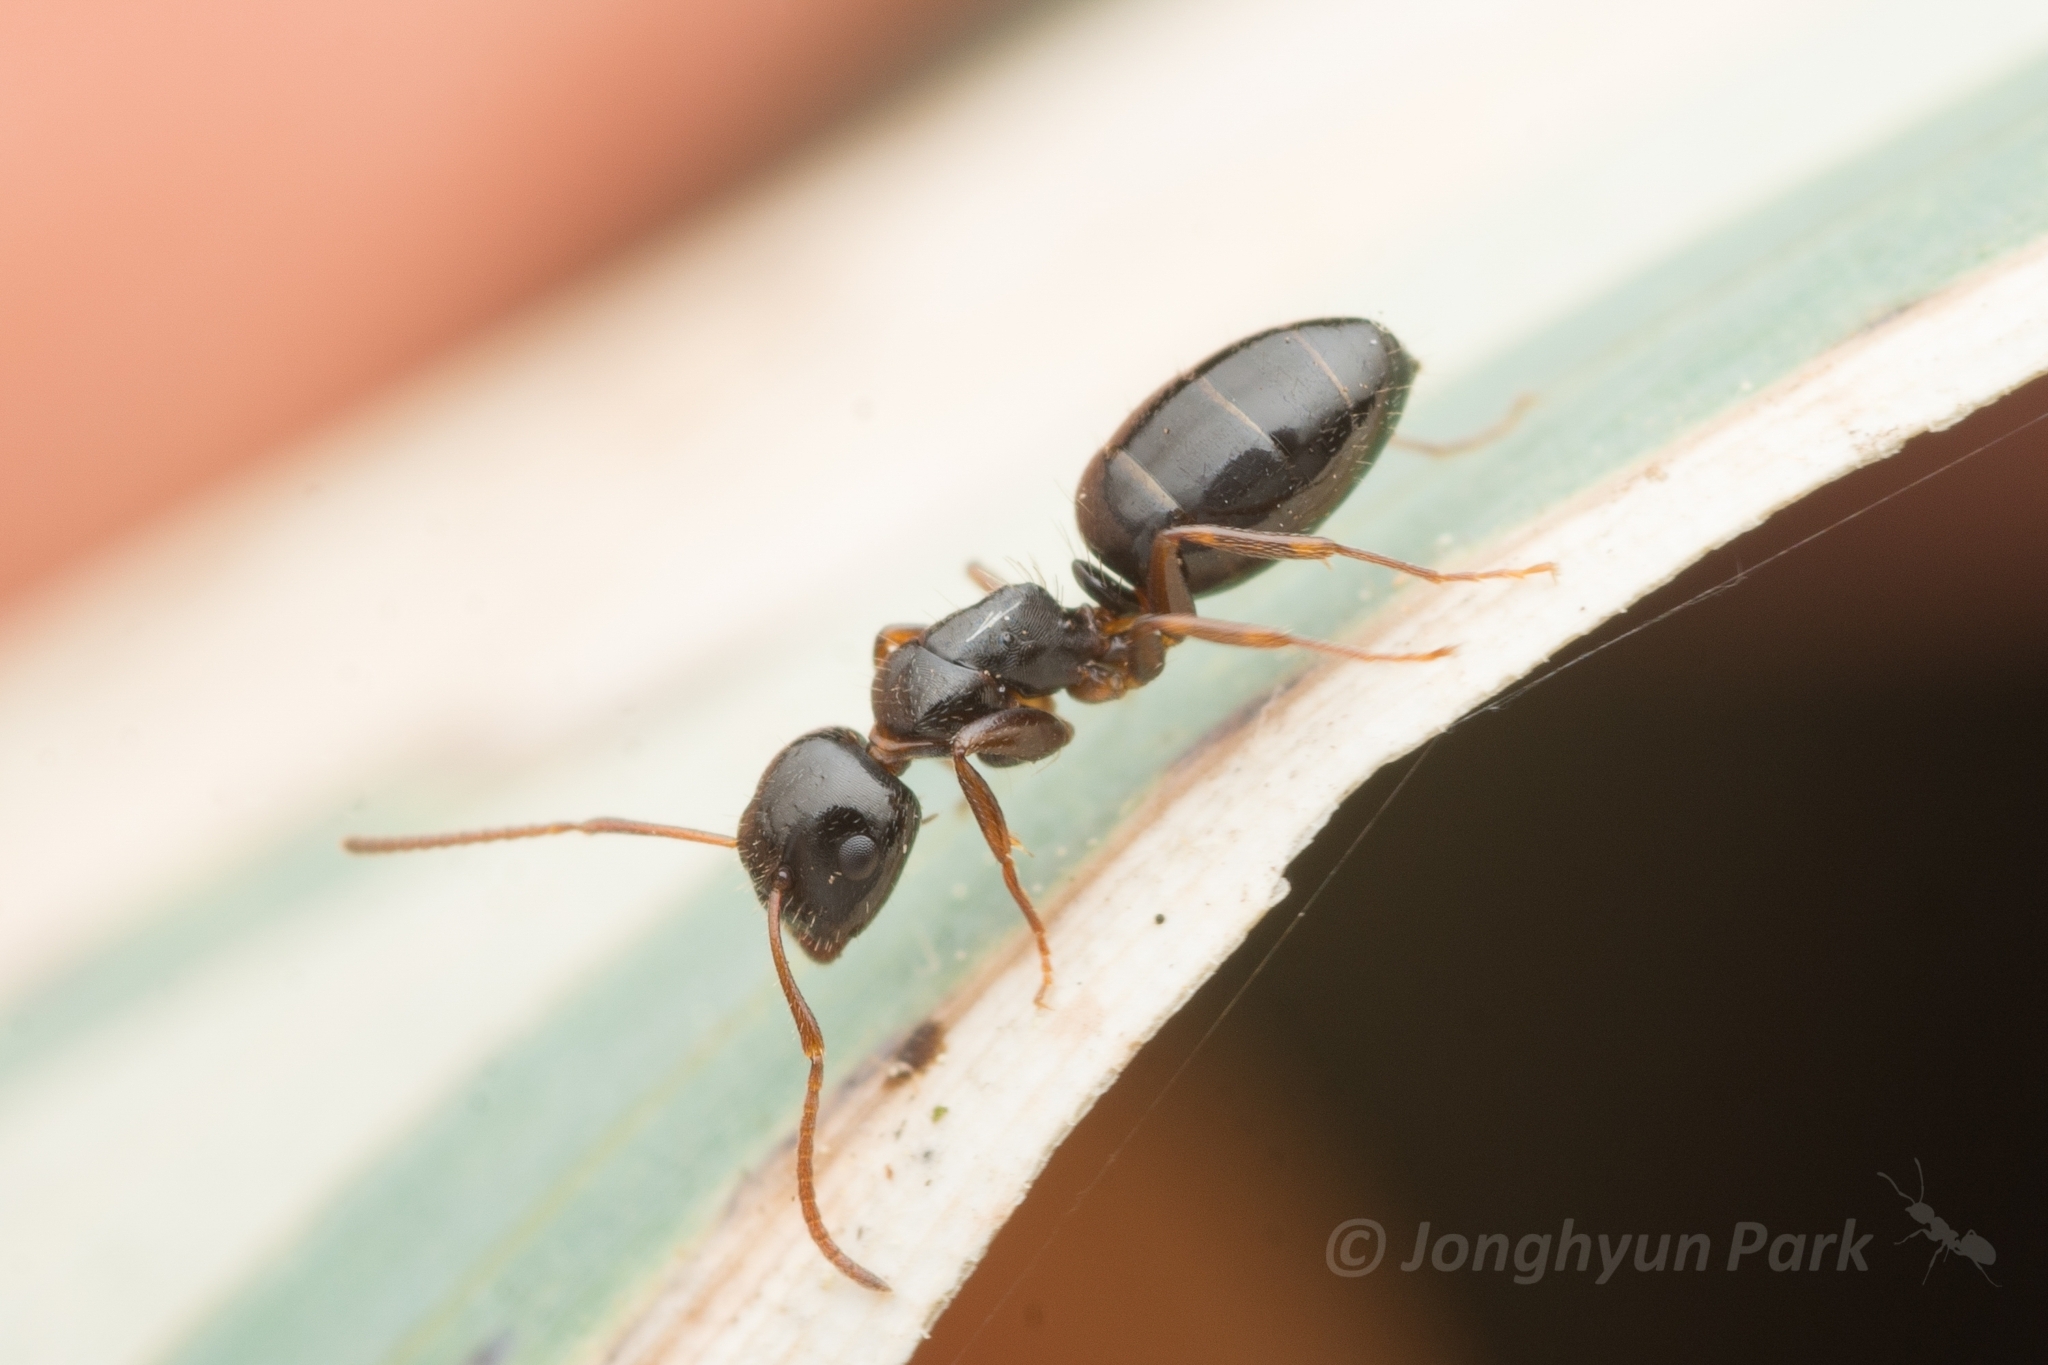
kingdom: Animalia
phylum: Arthropoda
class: Insecta
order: Hymenoptera
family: Formicidae
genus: Camponotus
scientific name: Camponotus itoi
